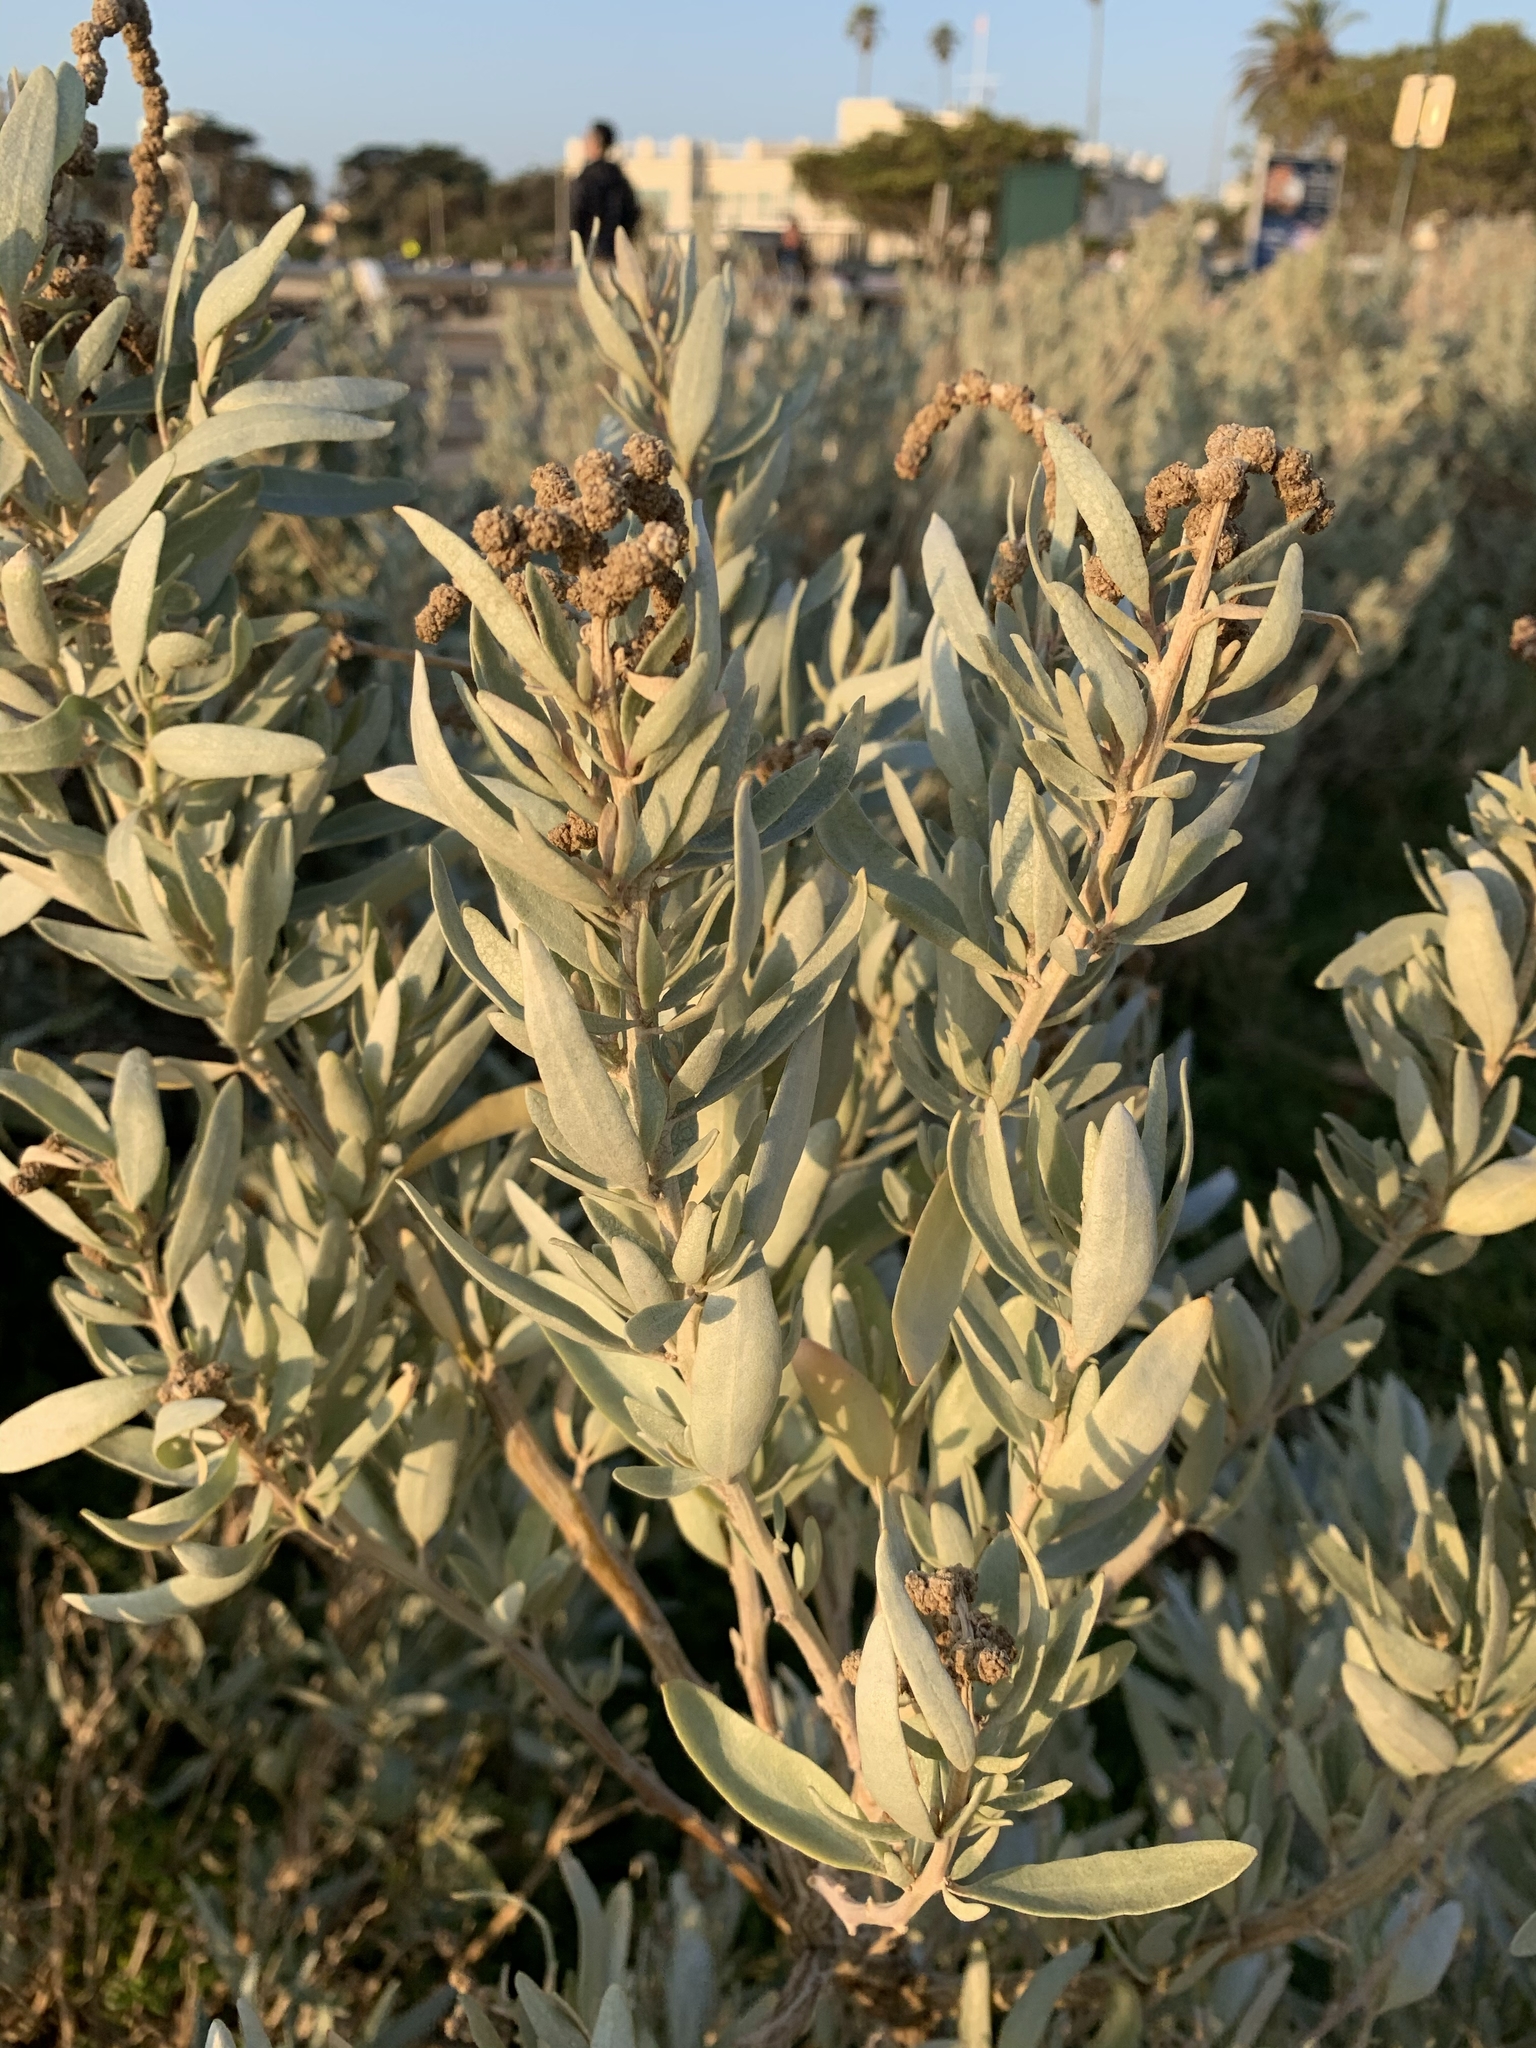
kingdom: Plantae
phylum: Tracheophyta
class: Magnoliopsida
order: Caryophyllales
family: Amaranthaceae
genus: Atriplex
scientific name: Atriplex cinerea
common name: Grey saltbush
